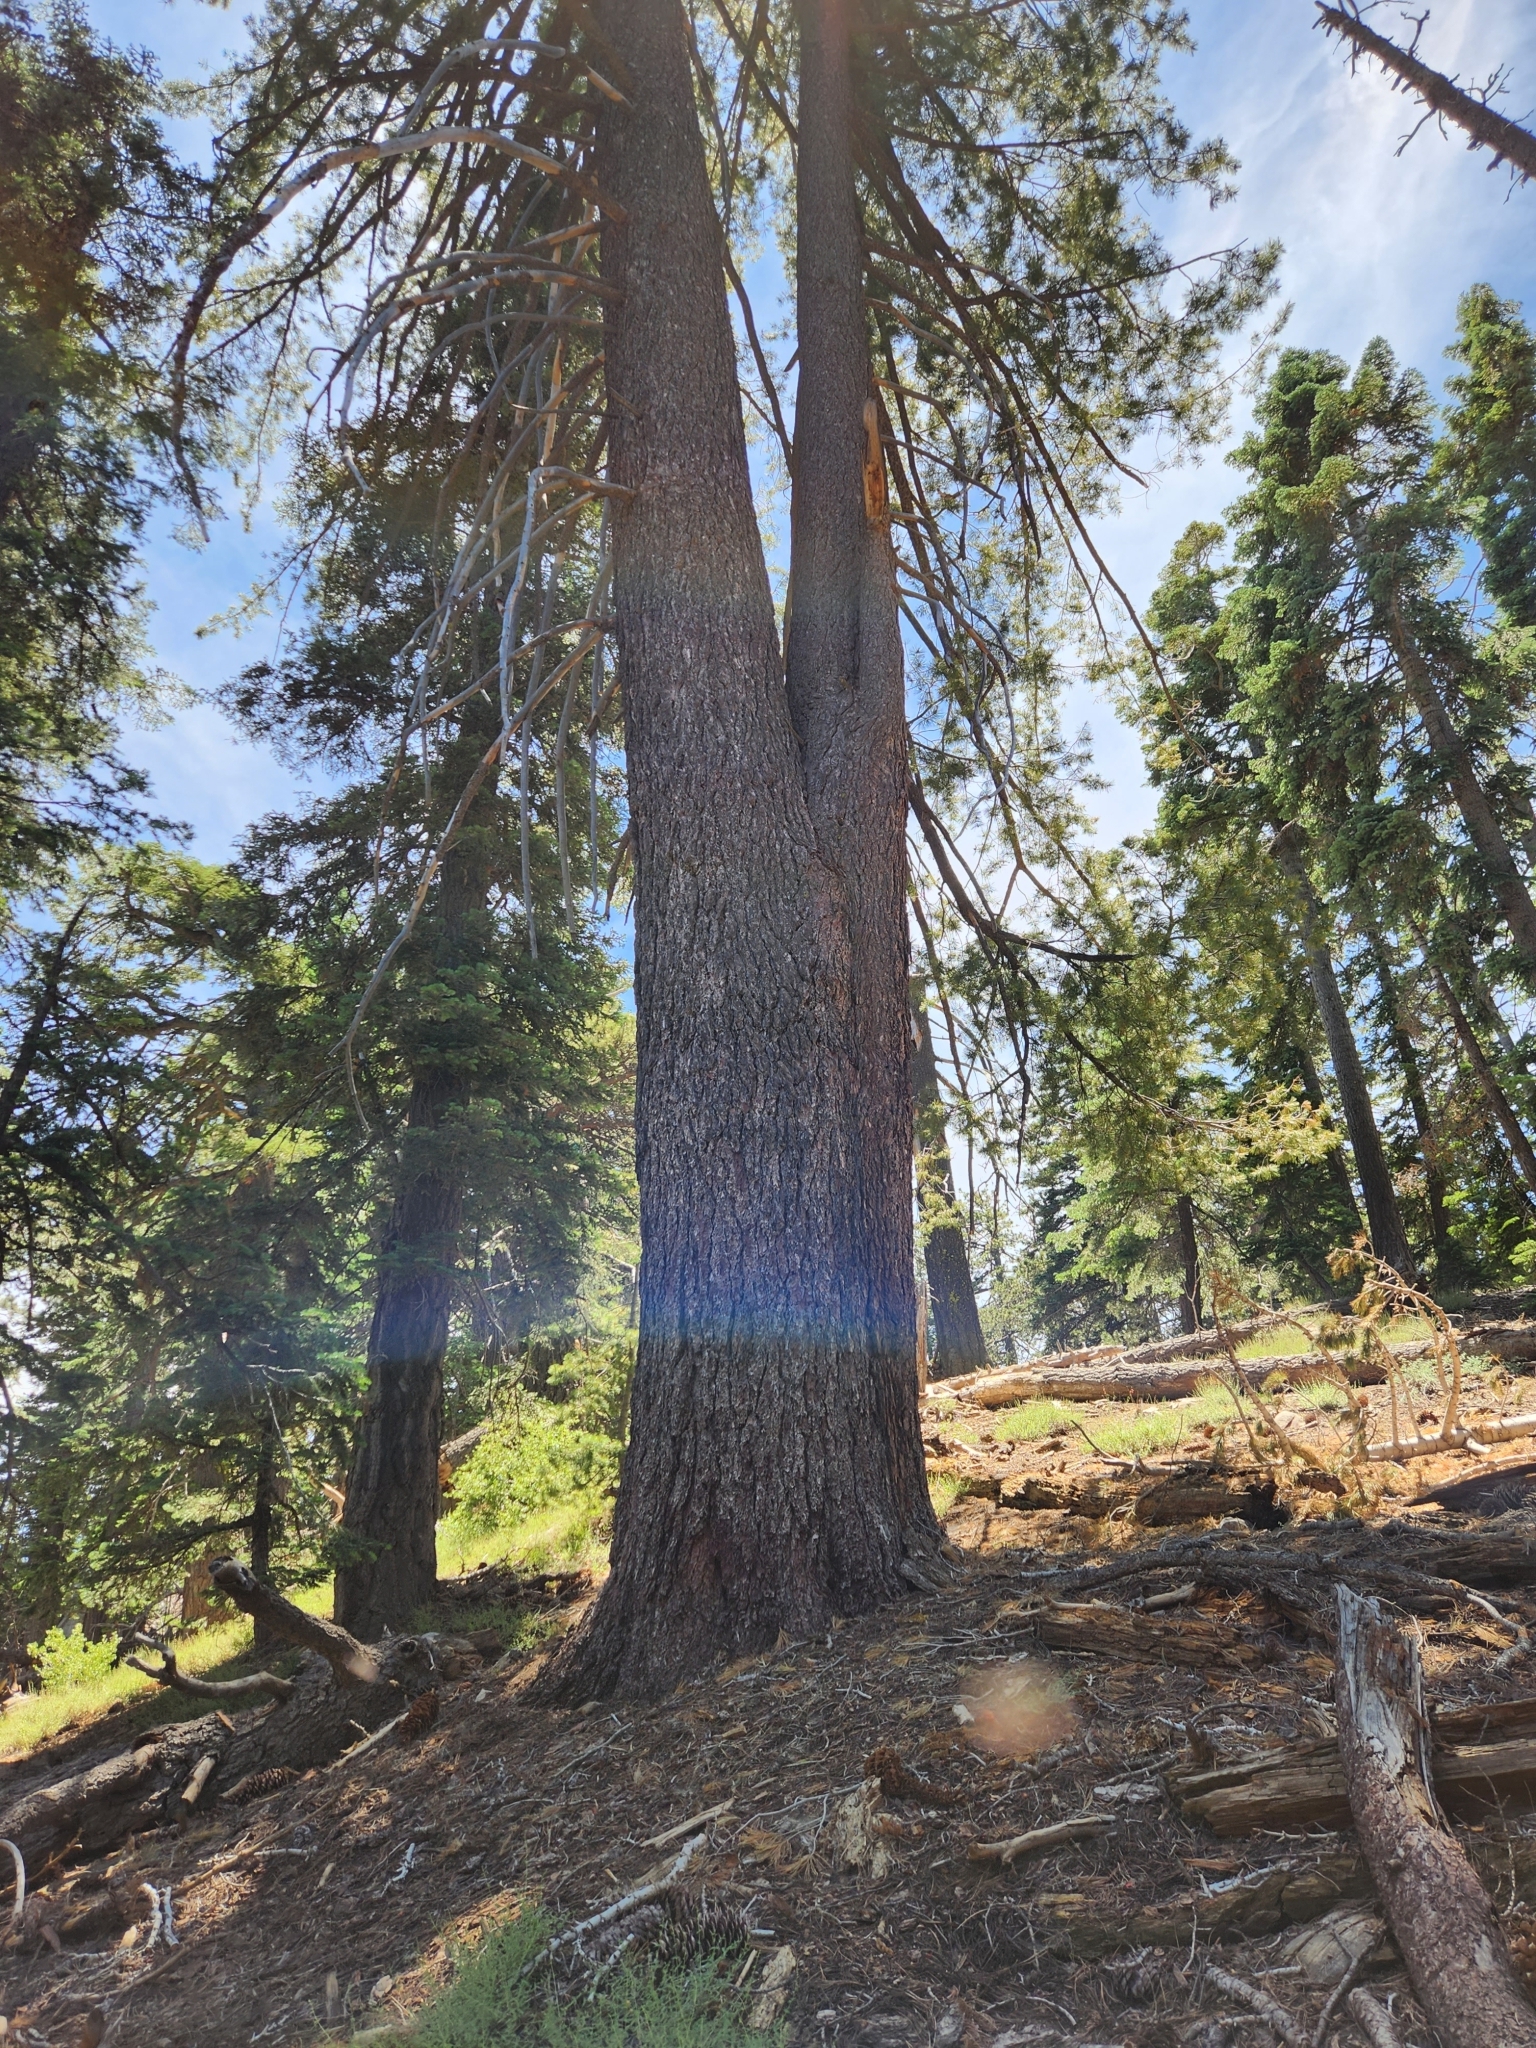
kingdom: Plantae
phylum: Tracheophyta
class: Pinopsida
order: Pinales
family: Pinaceae
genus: Pinus
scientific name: Pinus lambertiana
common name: Sugar pine
